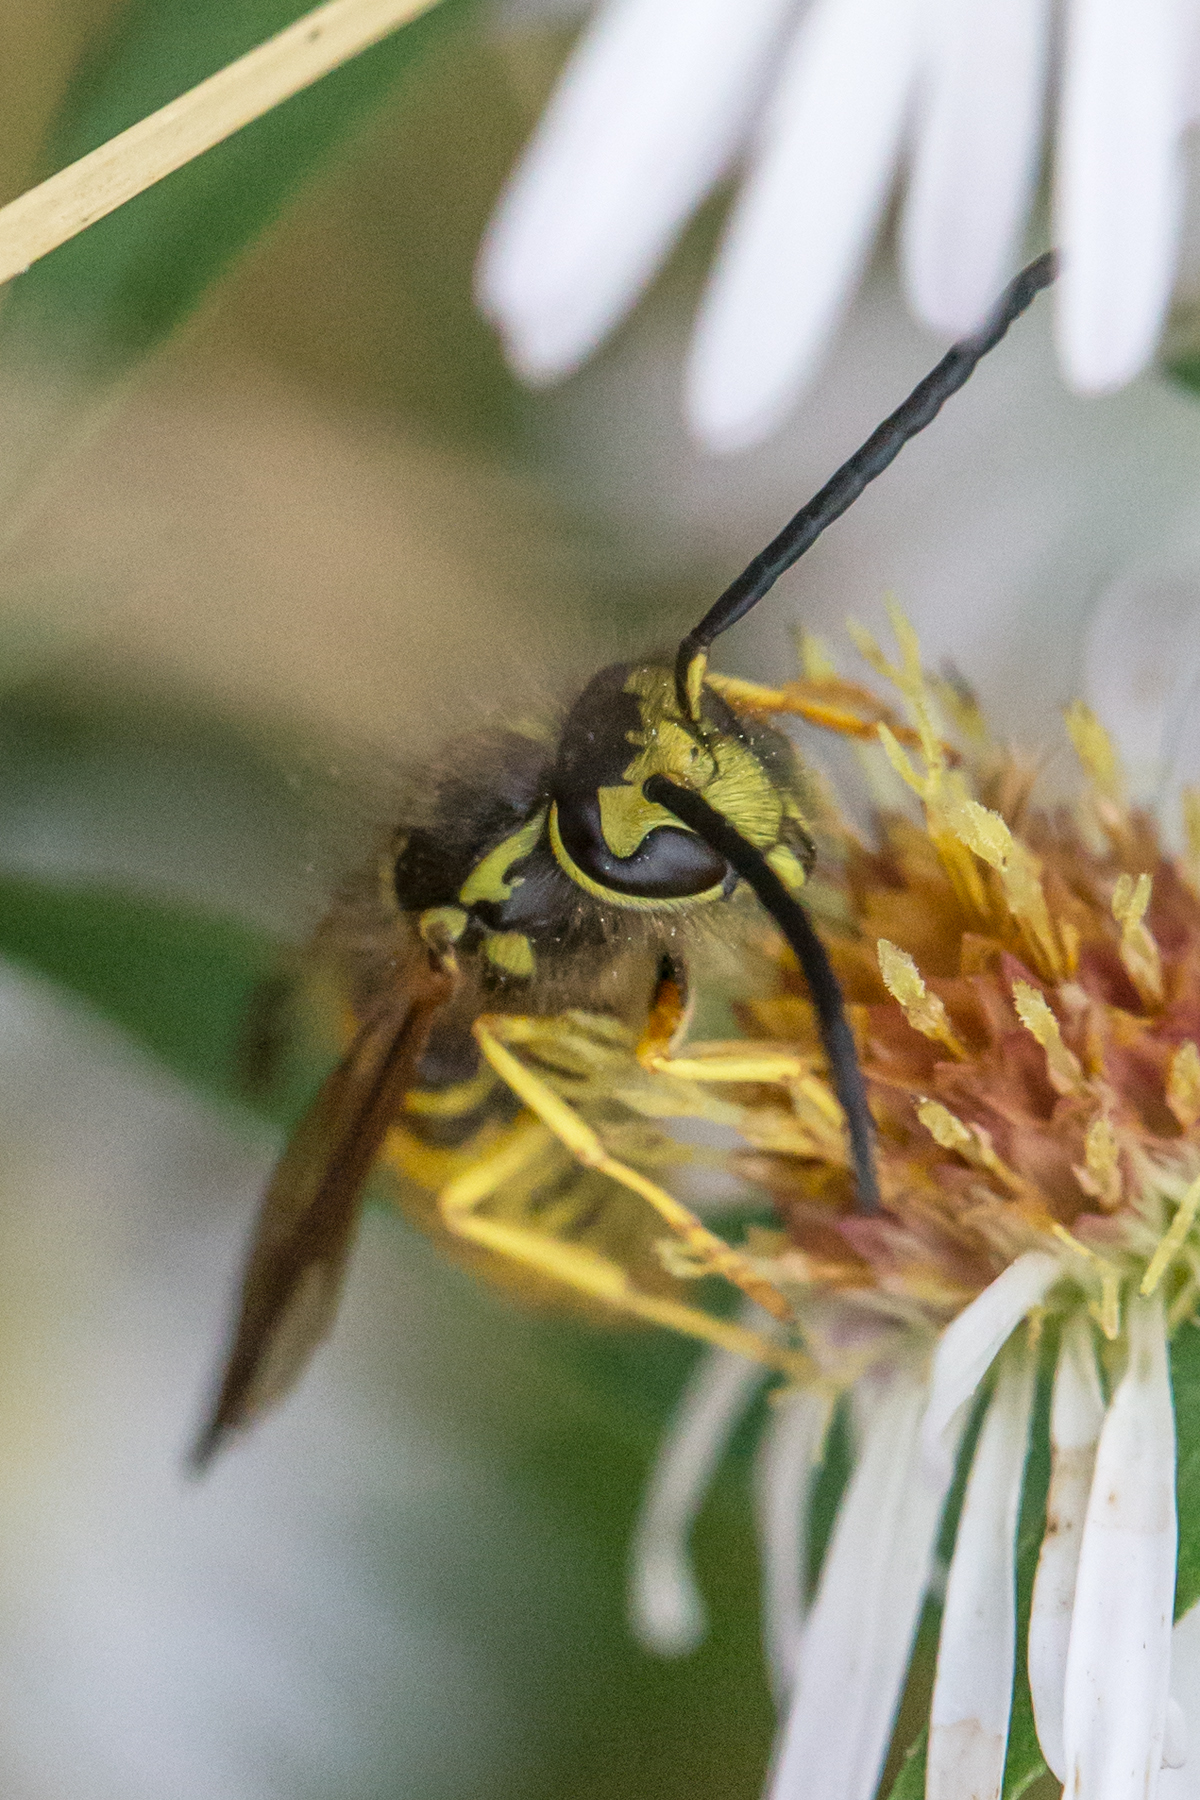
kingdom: Animalia
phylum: Arthropoda
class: Insecta
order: Hymenoptera
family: Vespidae
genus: Vespula
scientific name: Vespula flavopilosa
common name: Downy yellowjacket
